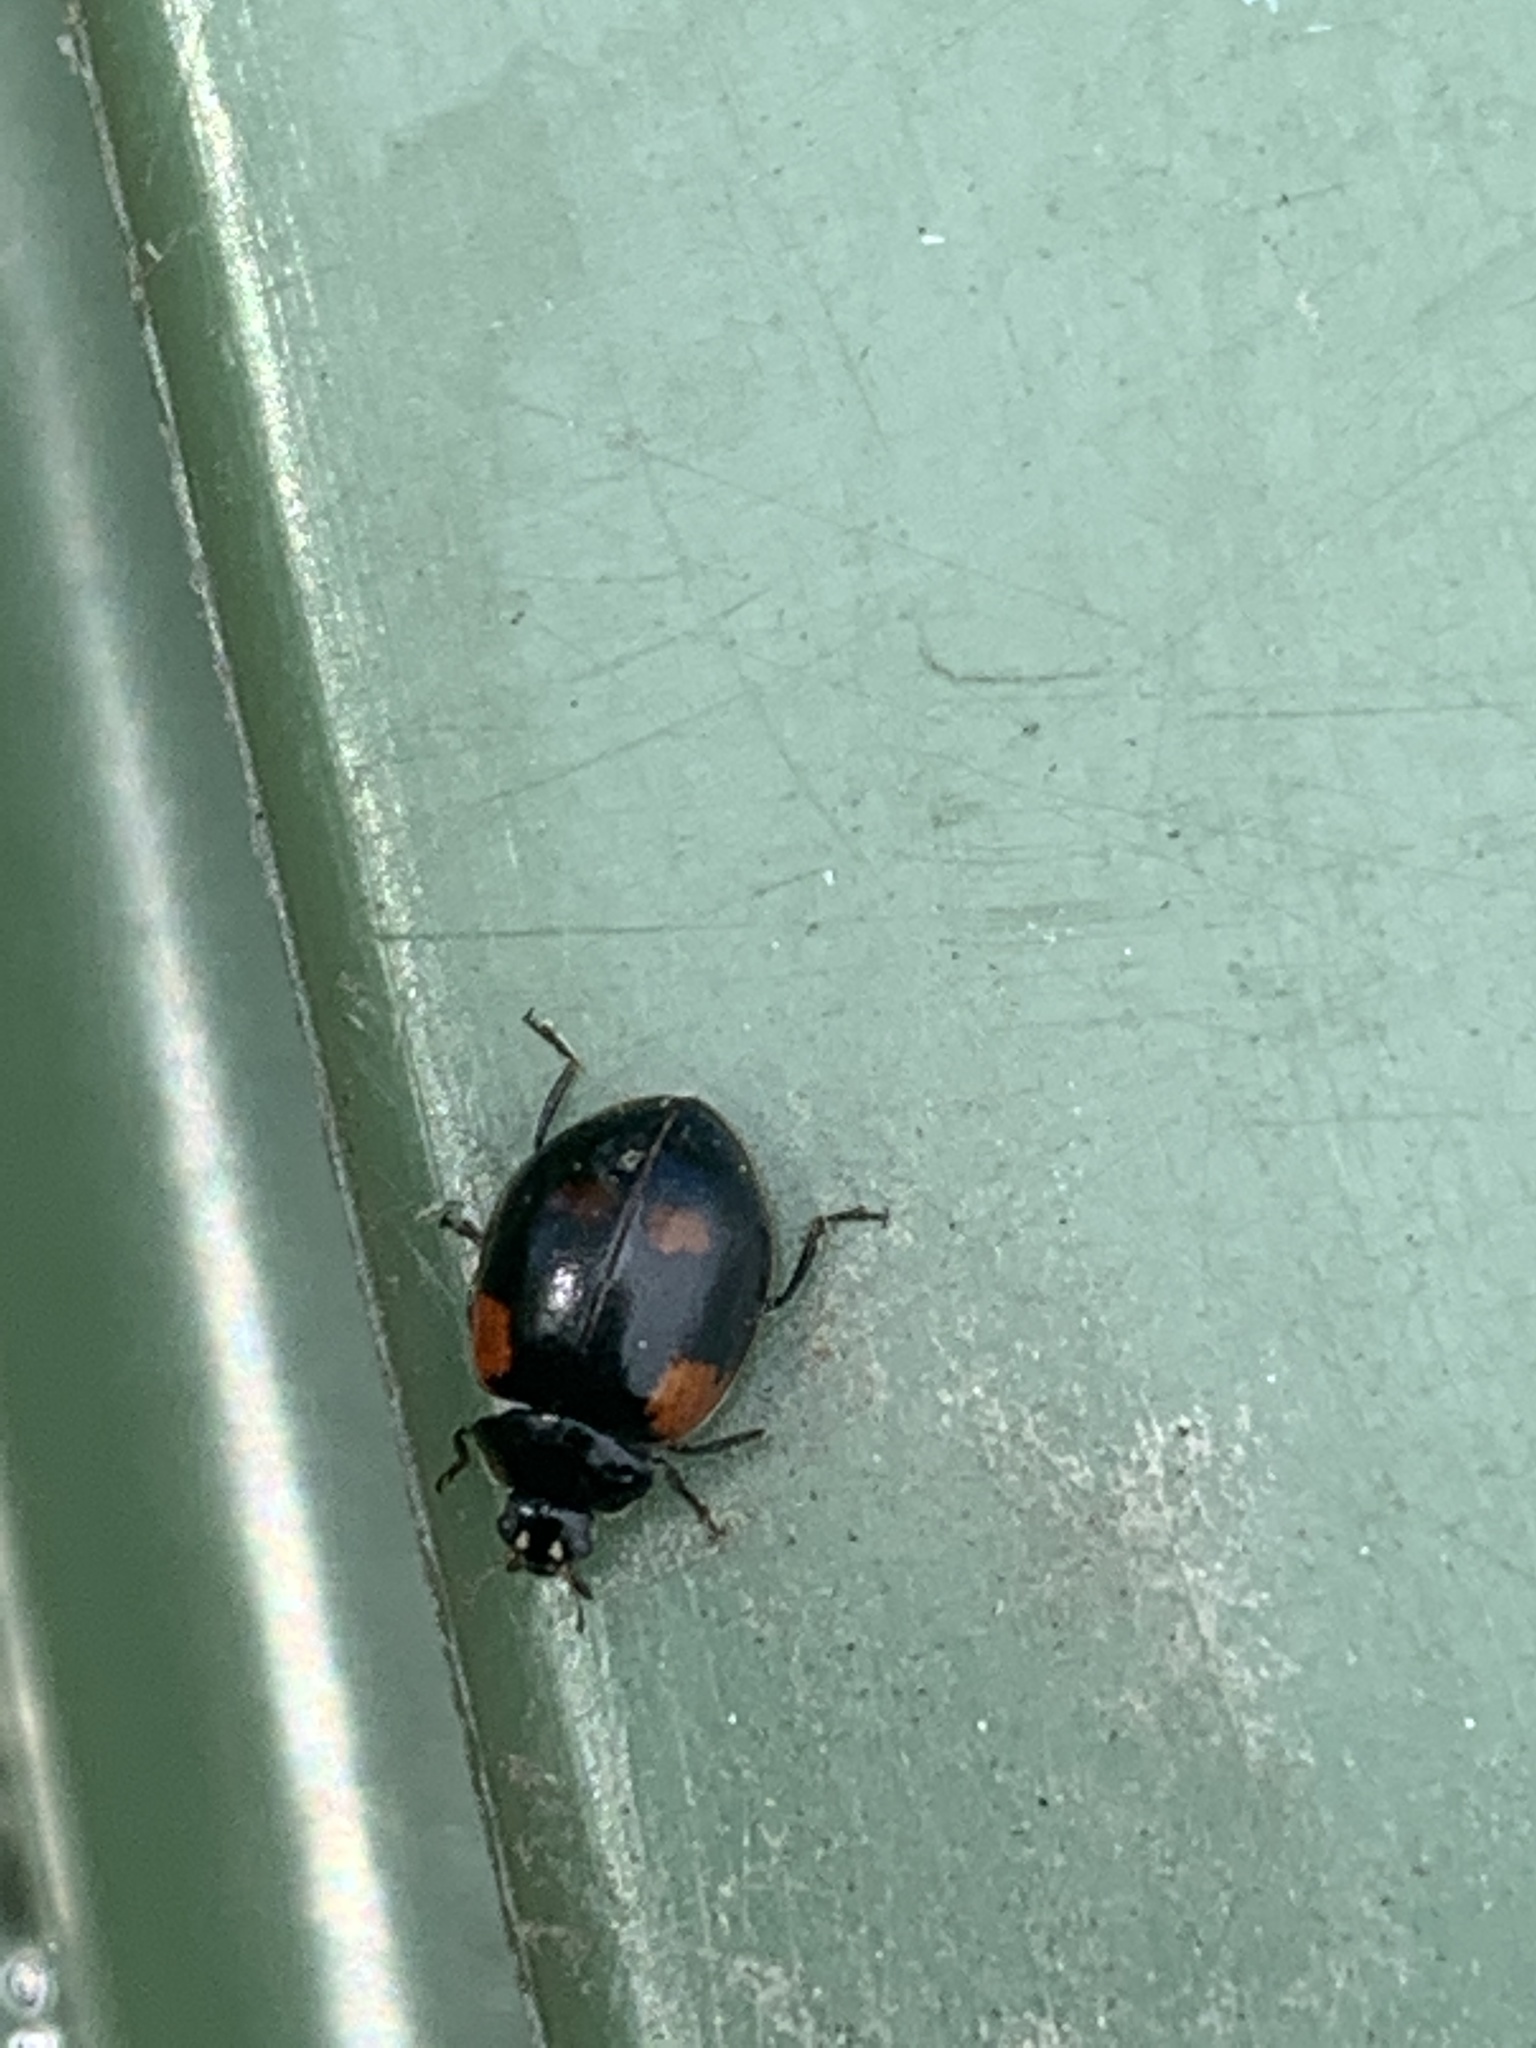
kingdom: Animalia
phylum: Arthropoda
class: Insecta
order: Coleoptera
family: Coccinellidae
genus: Adalia
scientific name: Adalia bipunctata
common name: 2-spot ladybird
